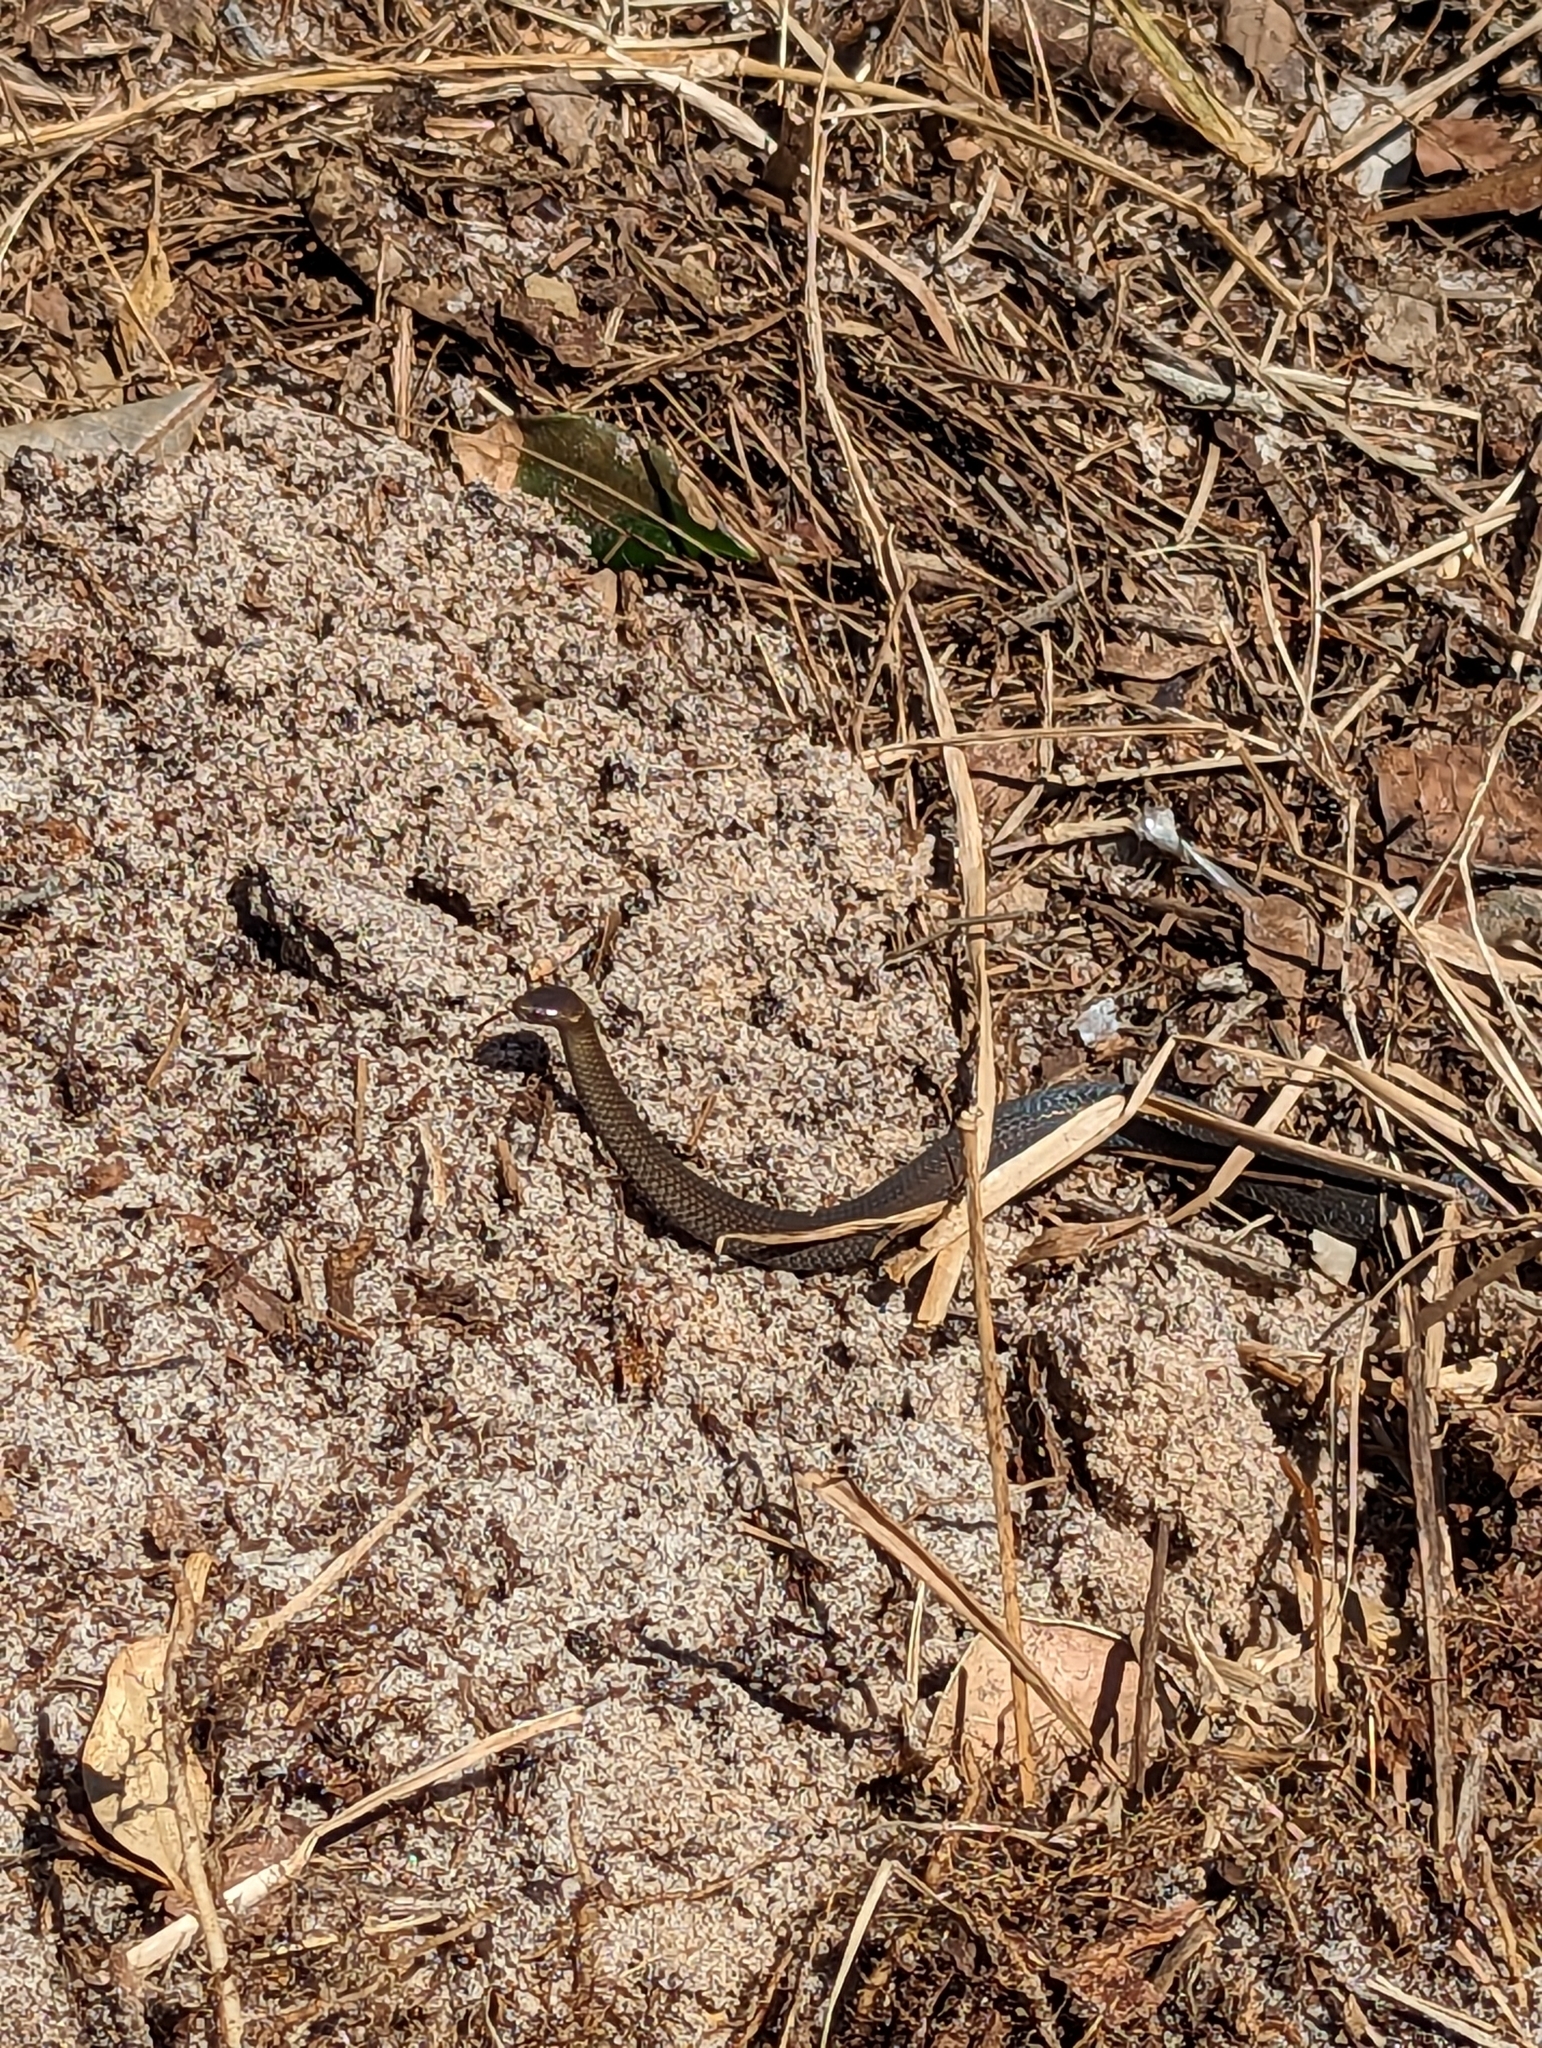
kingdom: Animalia
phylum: Chordata
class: Squamata
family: Elapidae
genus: Cacophis
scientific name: Cacophis krefftii
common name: Dwarf crowned snake
